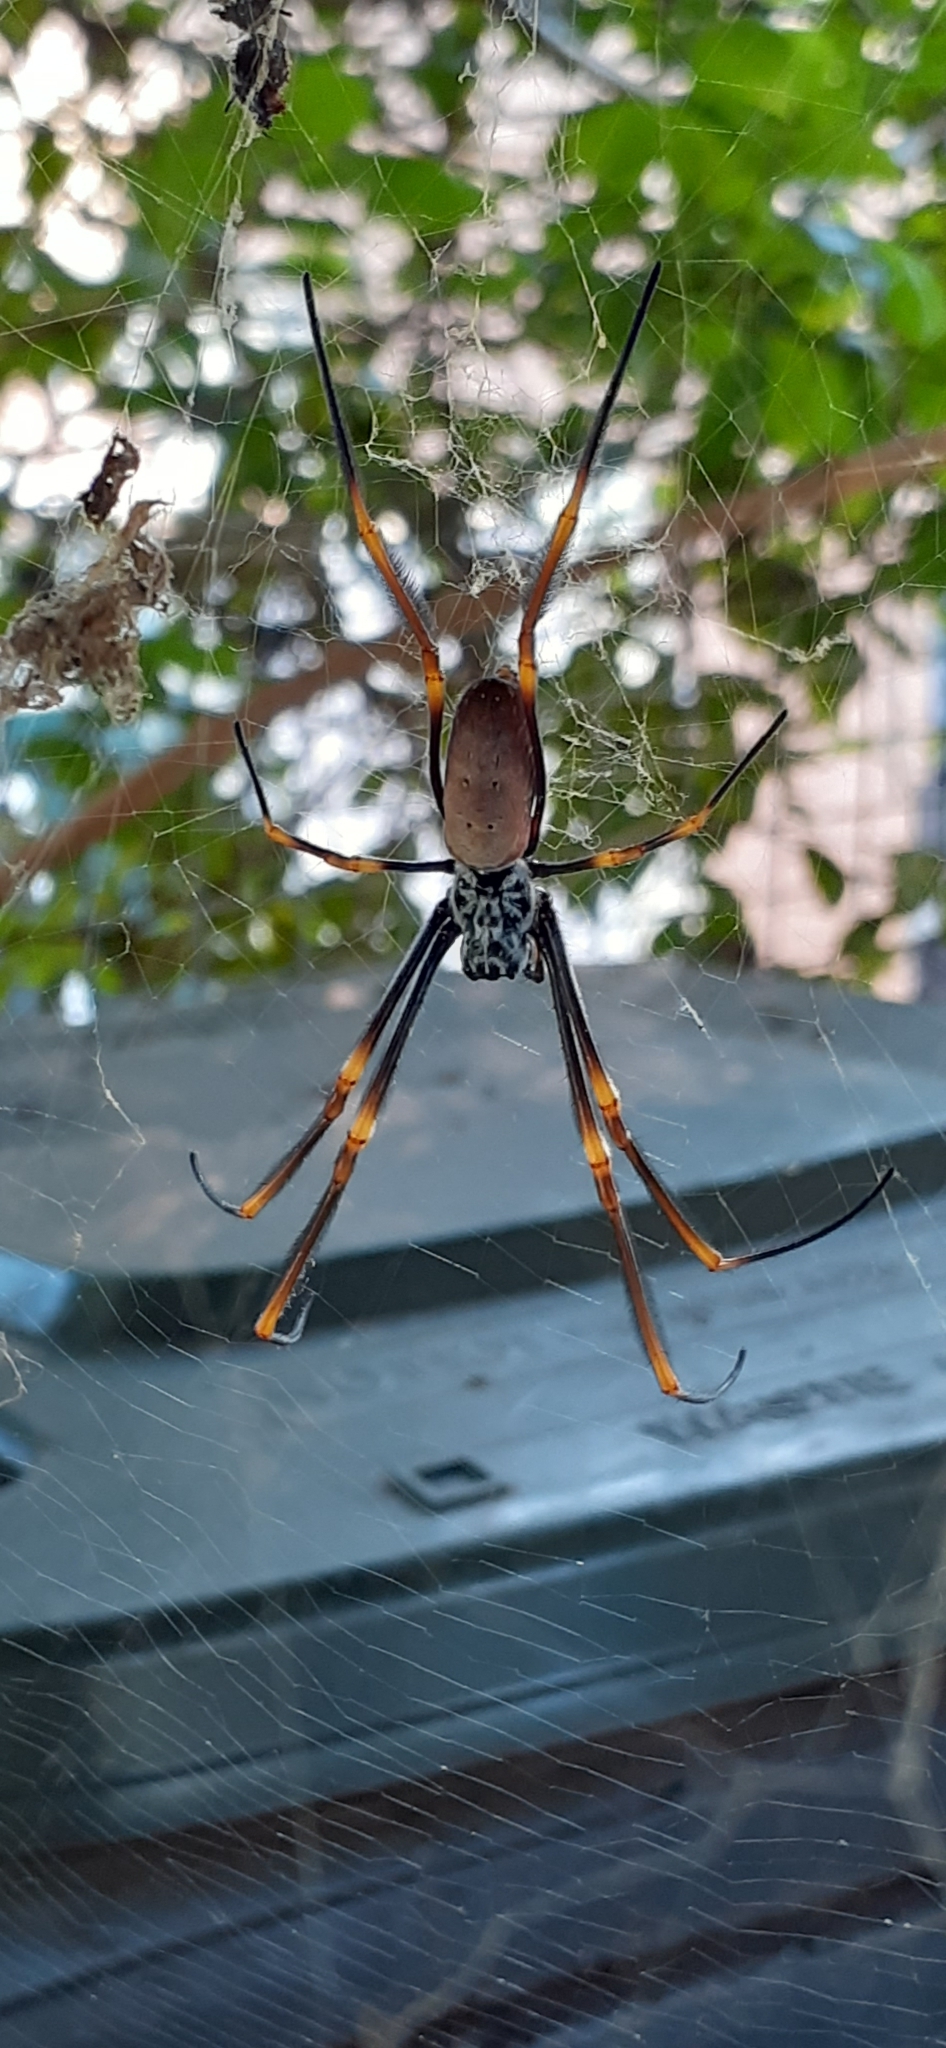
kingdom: Animalia
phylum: Arthropoda
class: Arachnida
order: Araneae
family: Araneidae
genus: Trichonephila
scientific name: Trichonephila plumipes
